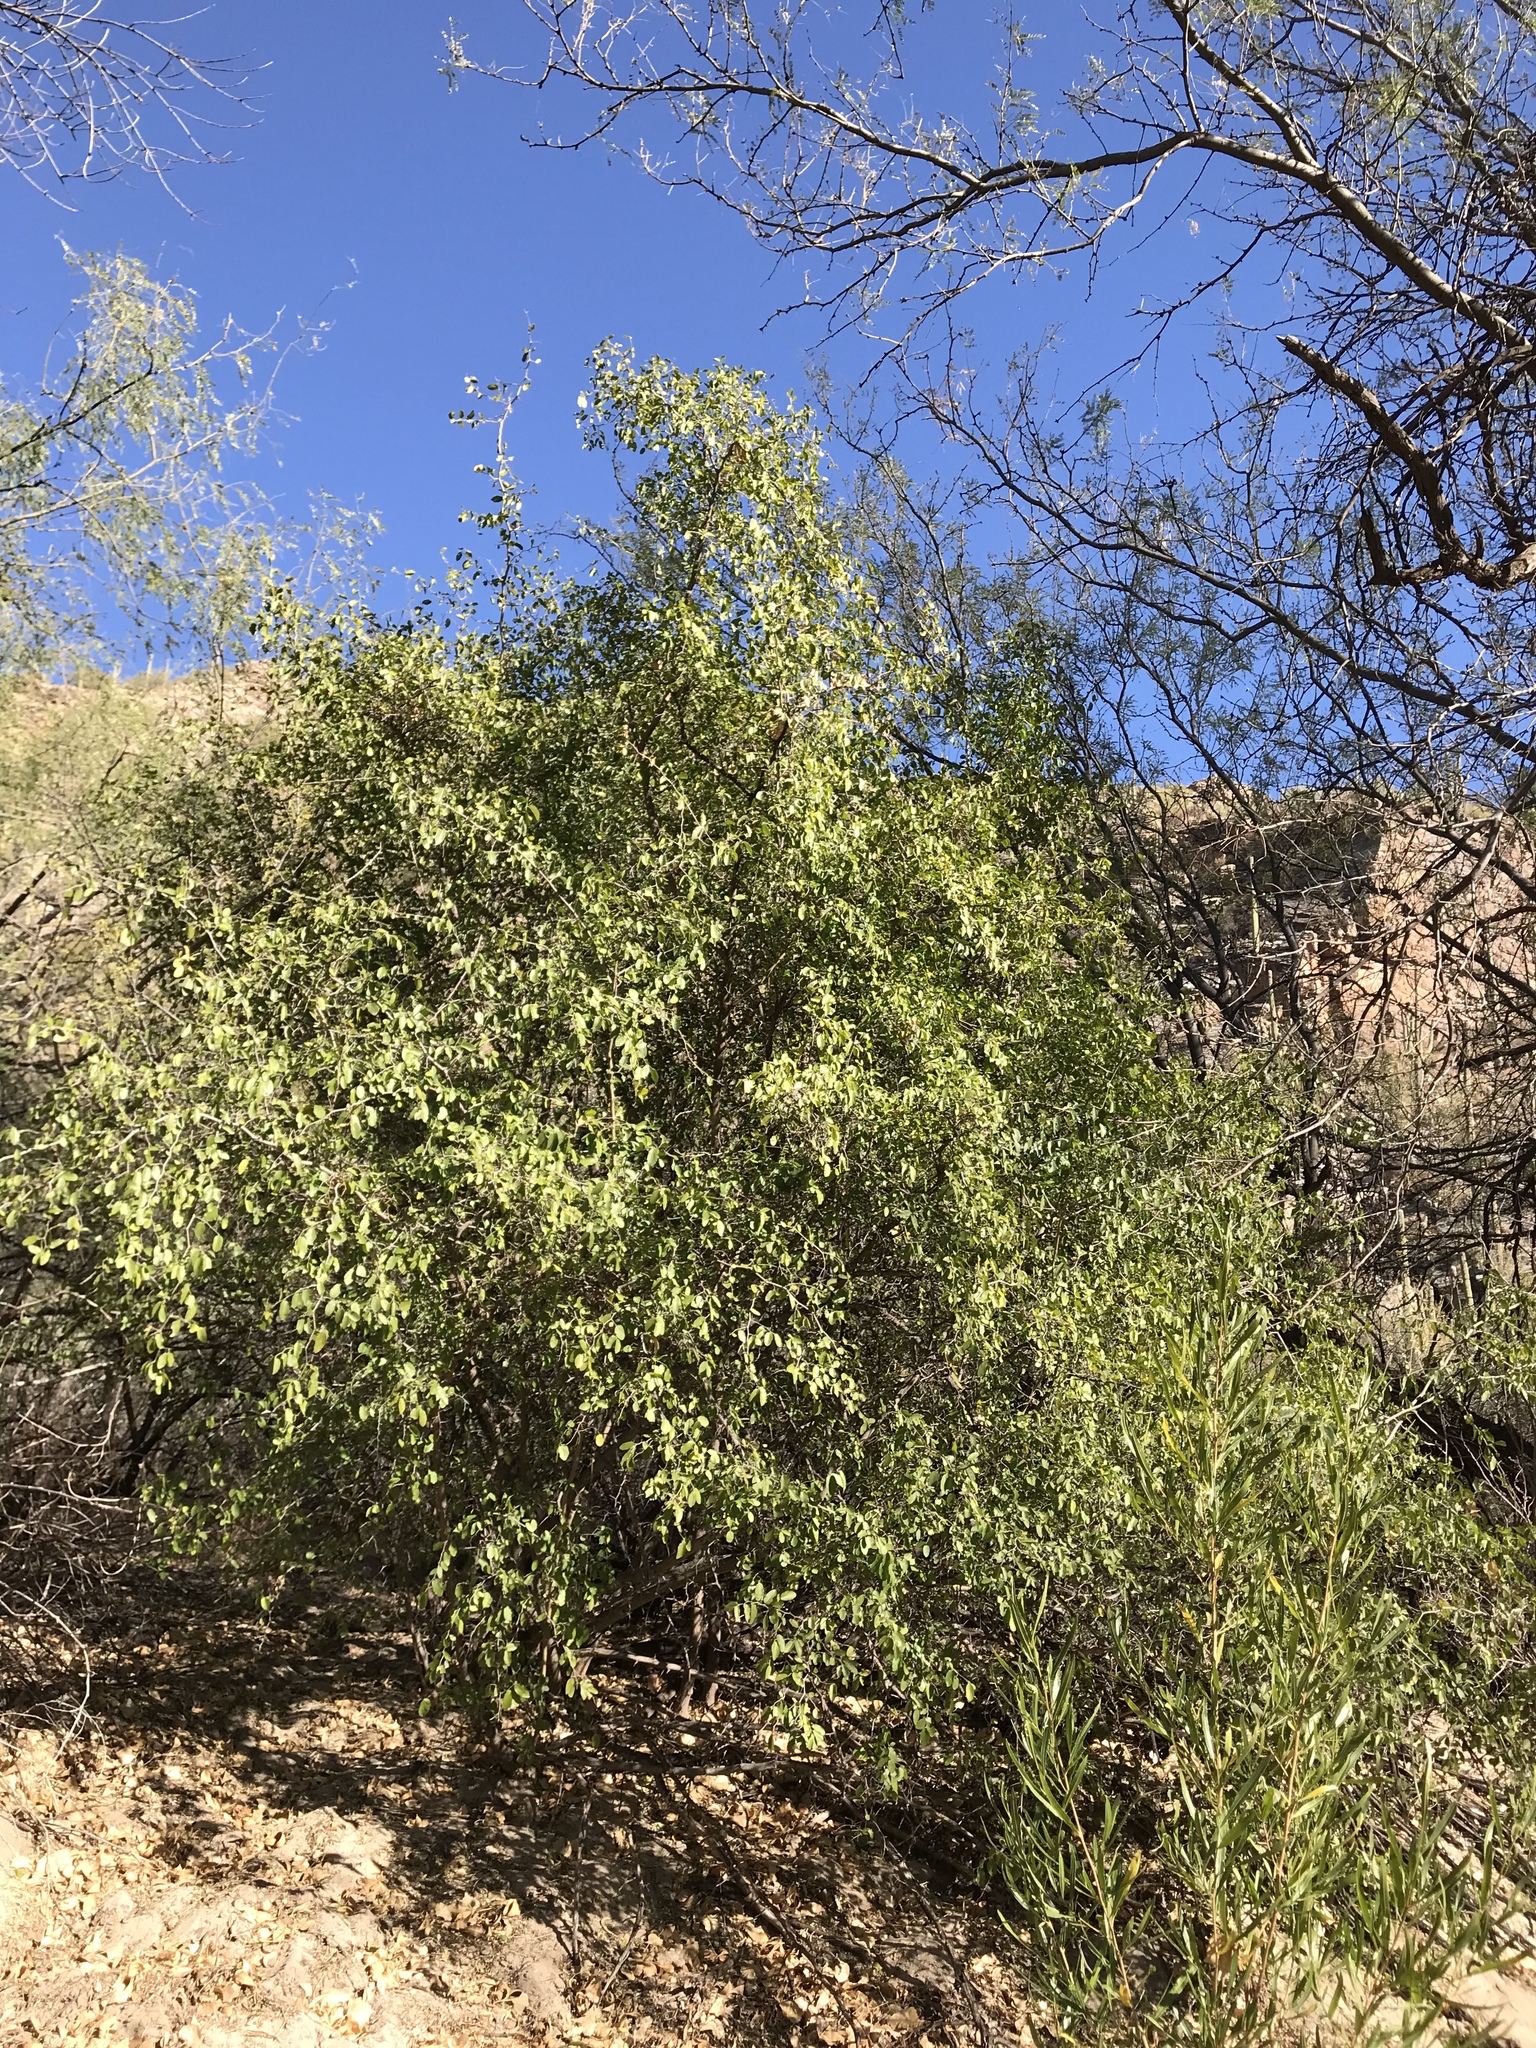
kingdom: Plantae
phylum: Tracheophyta
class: Magnoliopsida
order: Rosales
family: Cannabaceae
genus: Celtis
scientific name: Celtis pallida
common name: Desert hackberry
